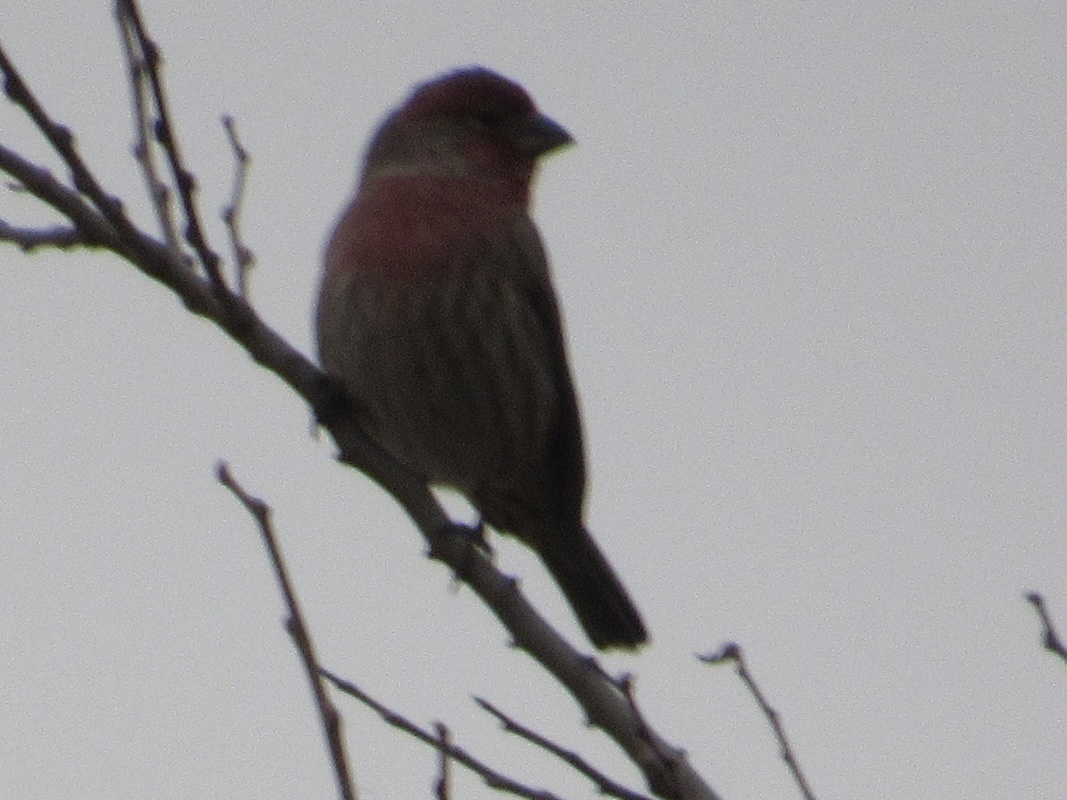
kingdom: Animalia
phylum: Chordata
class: Aves
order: Passeriformes
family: Fringillidae
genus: Haemorhous
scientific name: Haemorhous mexicanus
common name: House finch
